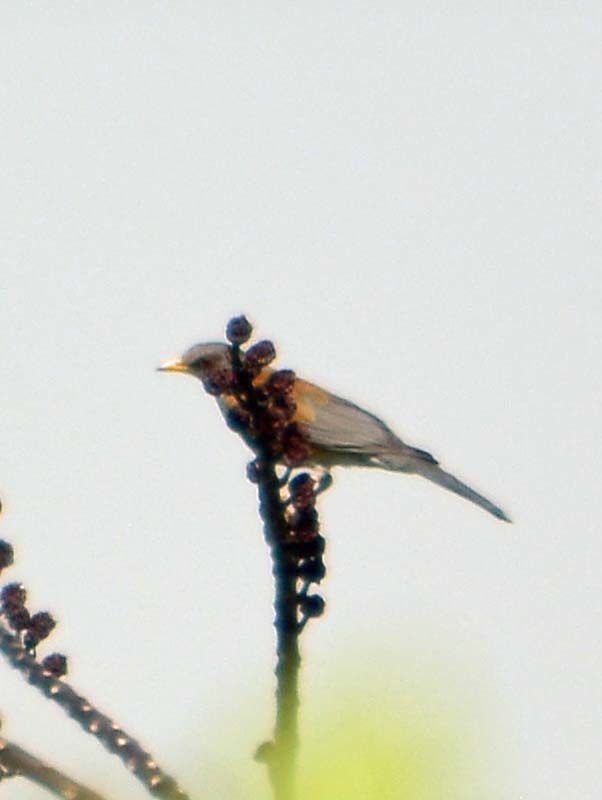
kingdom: Animalia
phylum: Chordata
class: Aves
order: Passeriformes
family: Turdidae
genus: Turdus
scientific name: Turdus rufopalliatus
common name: Rufous-backed robin
